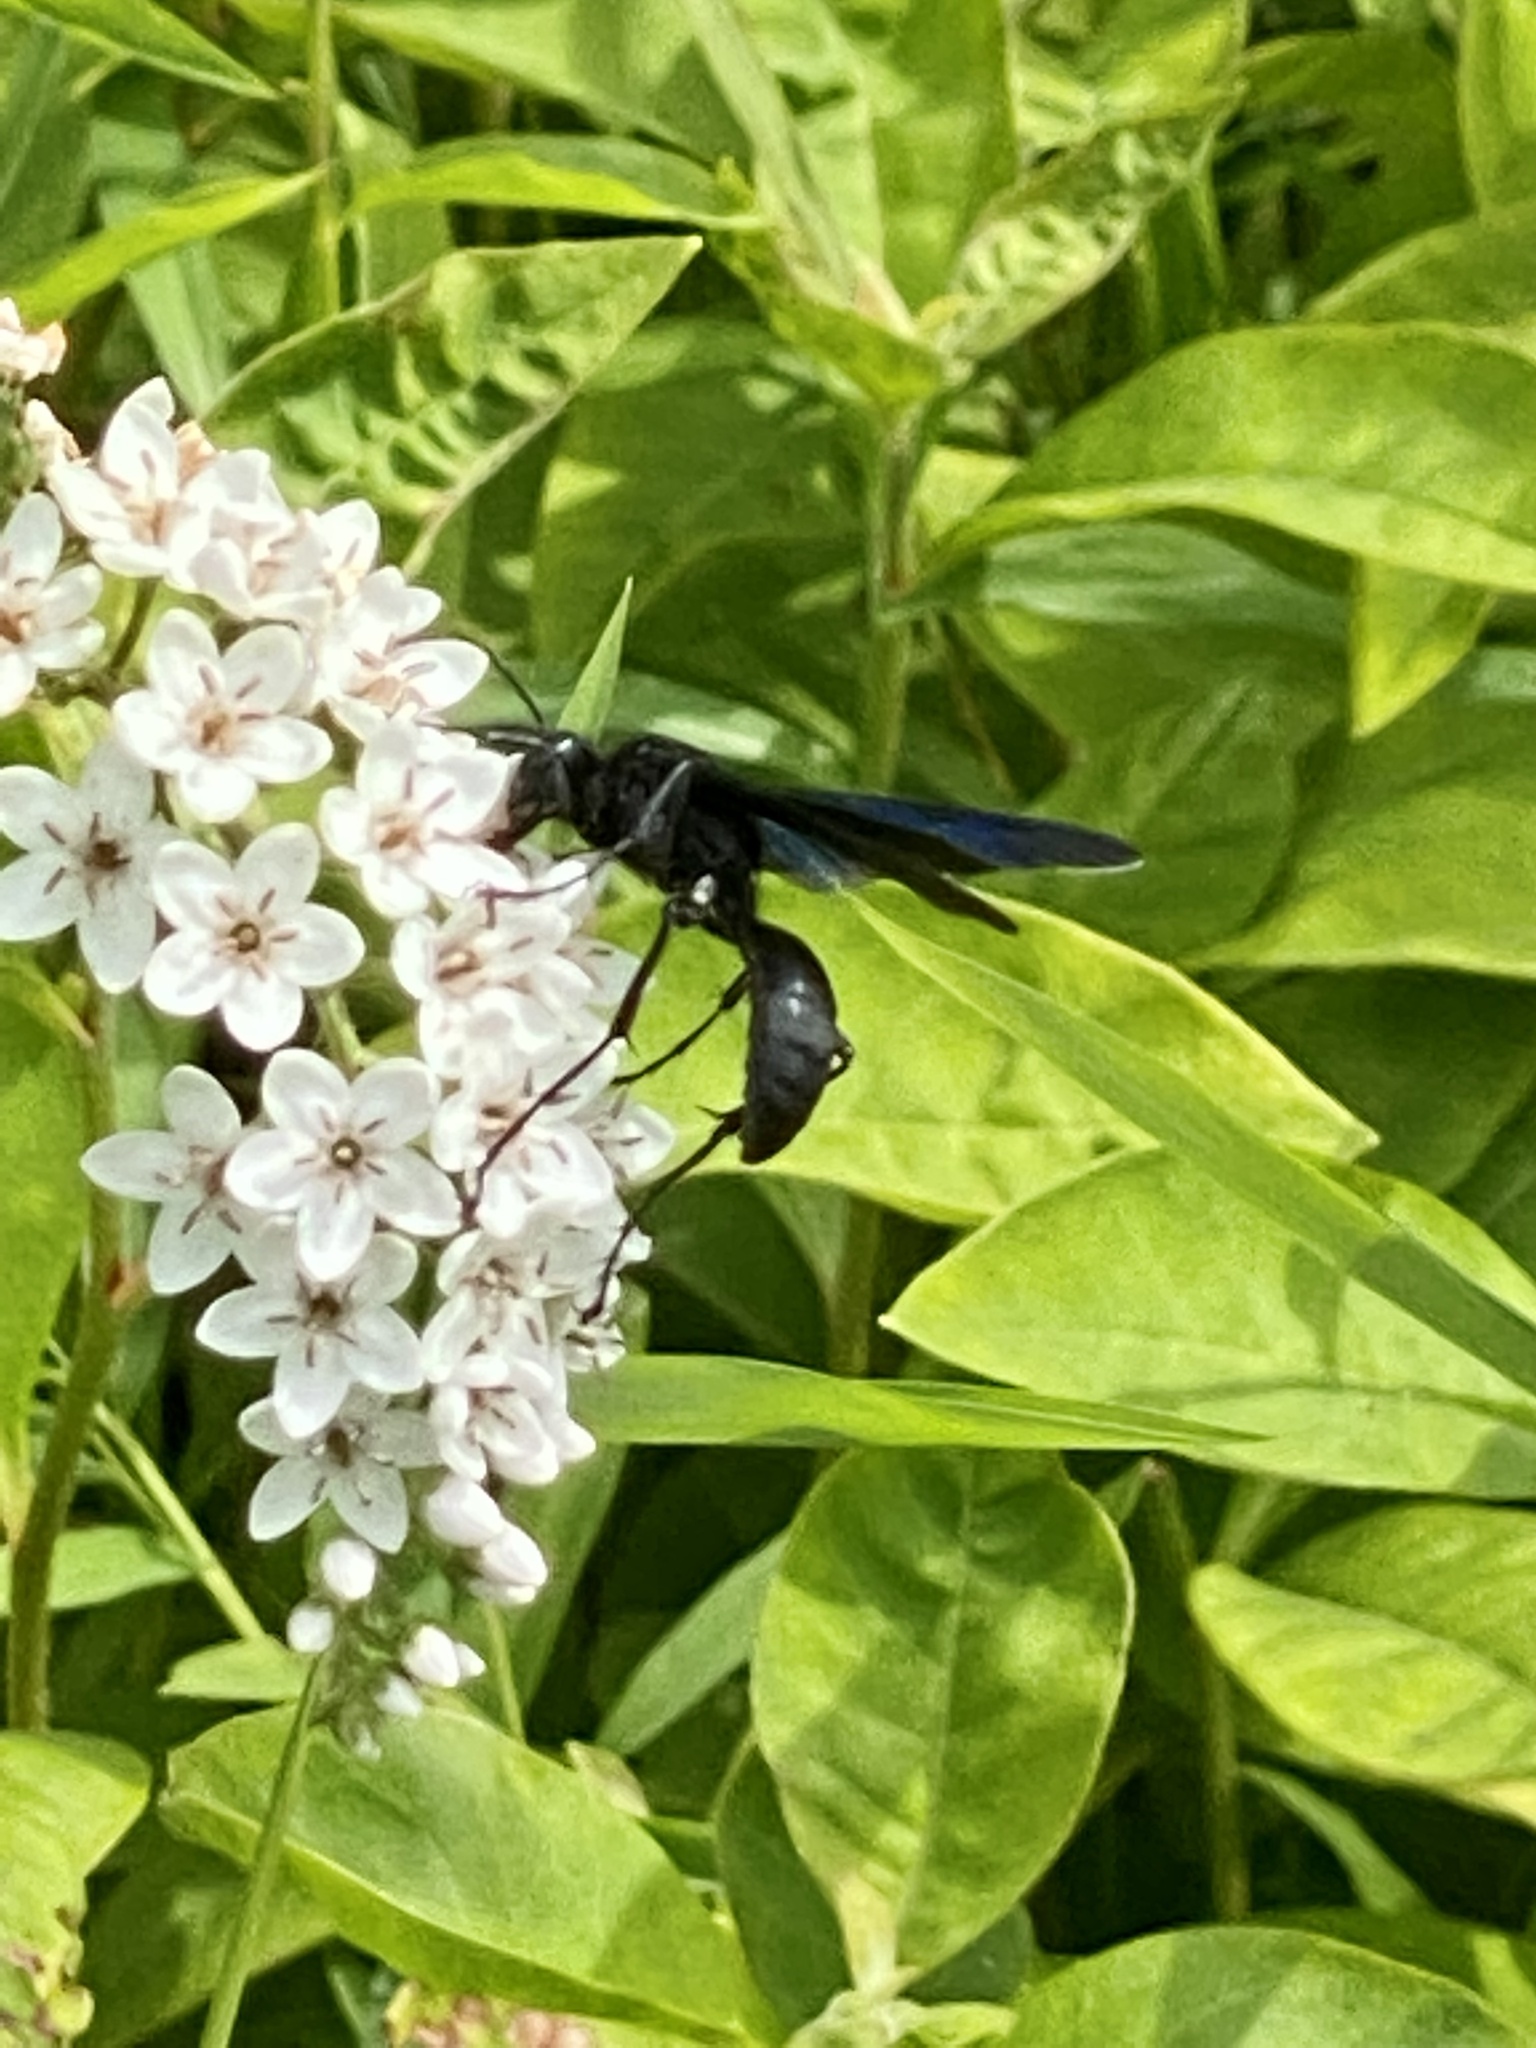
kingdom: Animalia
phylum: Arthropoda
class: Insecta
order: Hymenoptera
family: Sphecidae
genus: Sphex
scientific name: Sphex pensylvanicus
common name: Great black digger wasp
